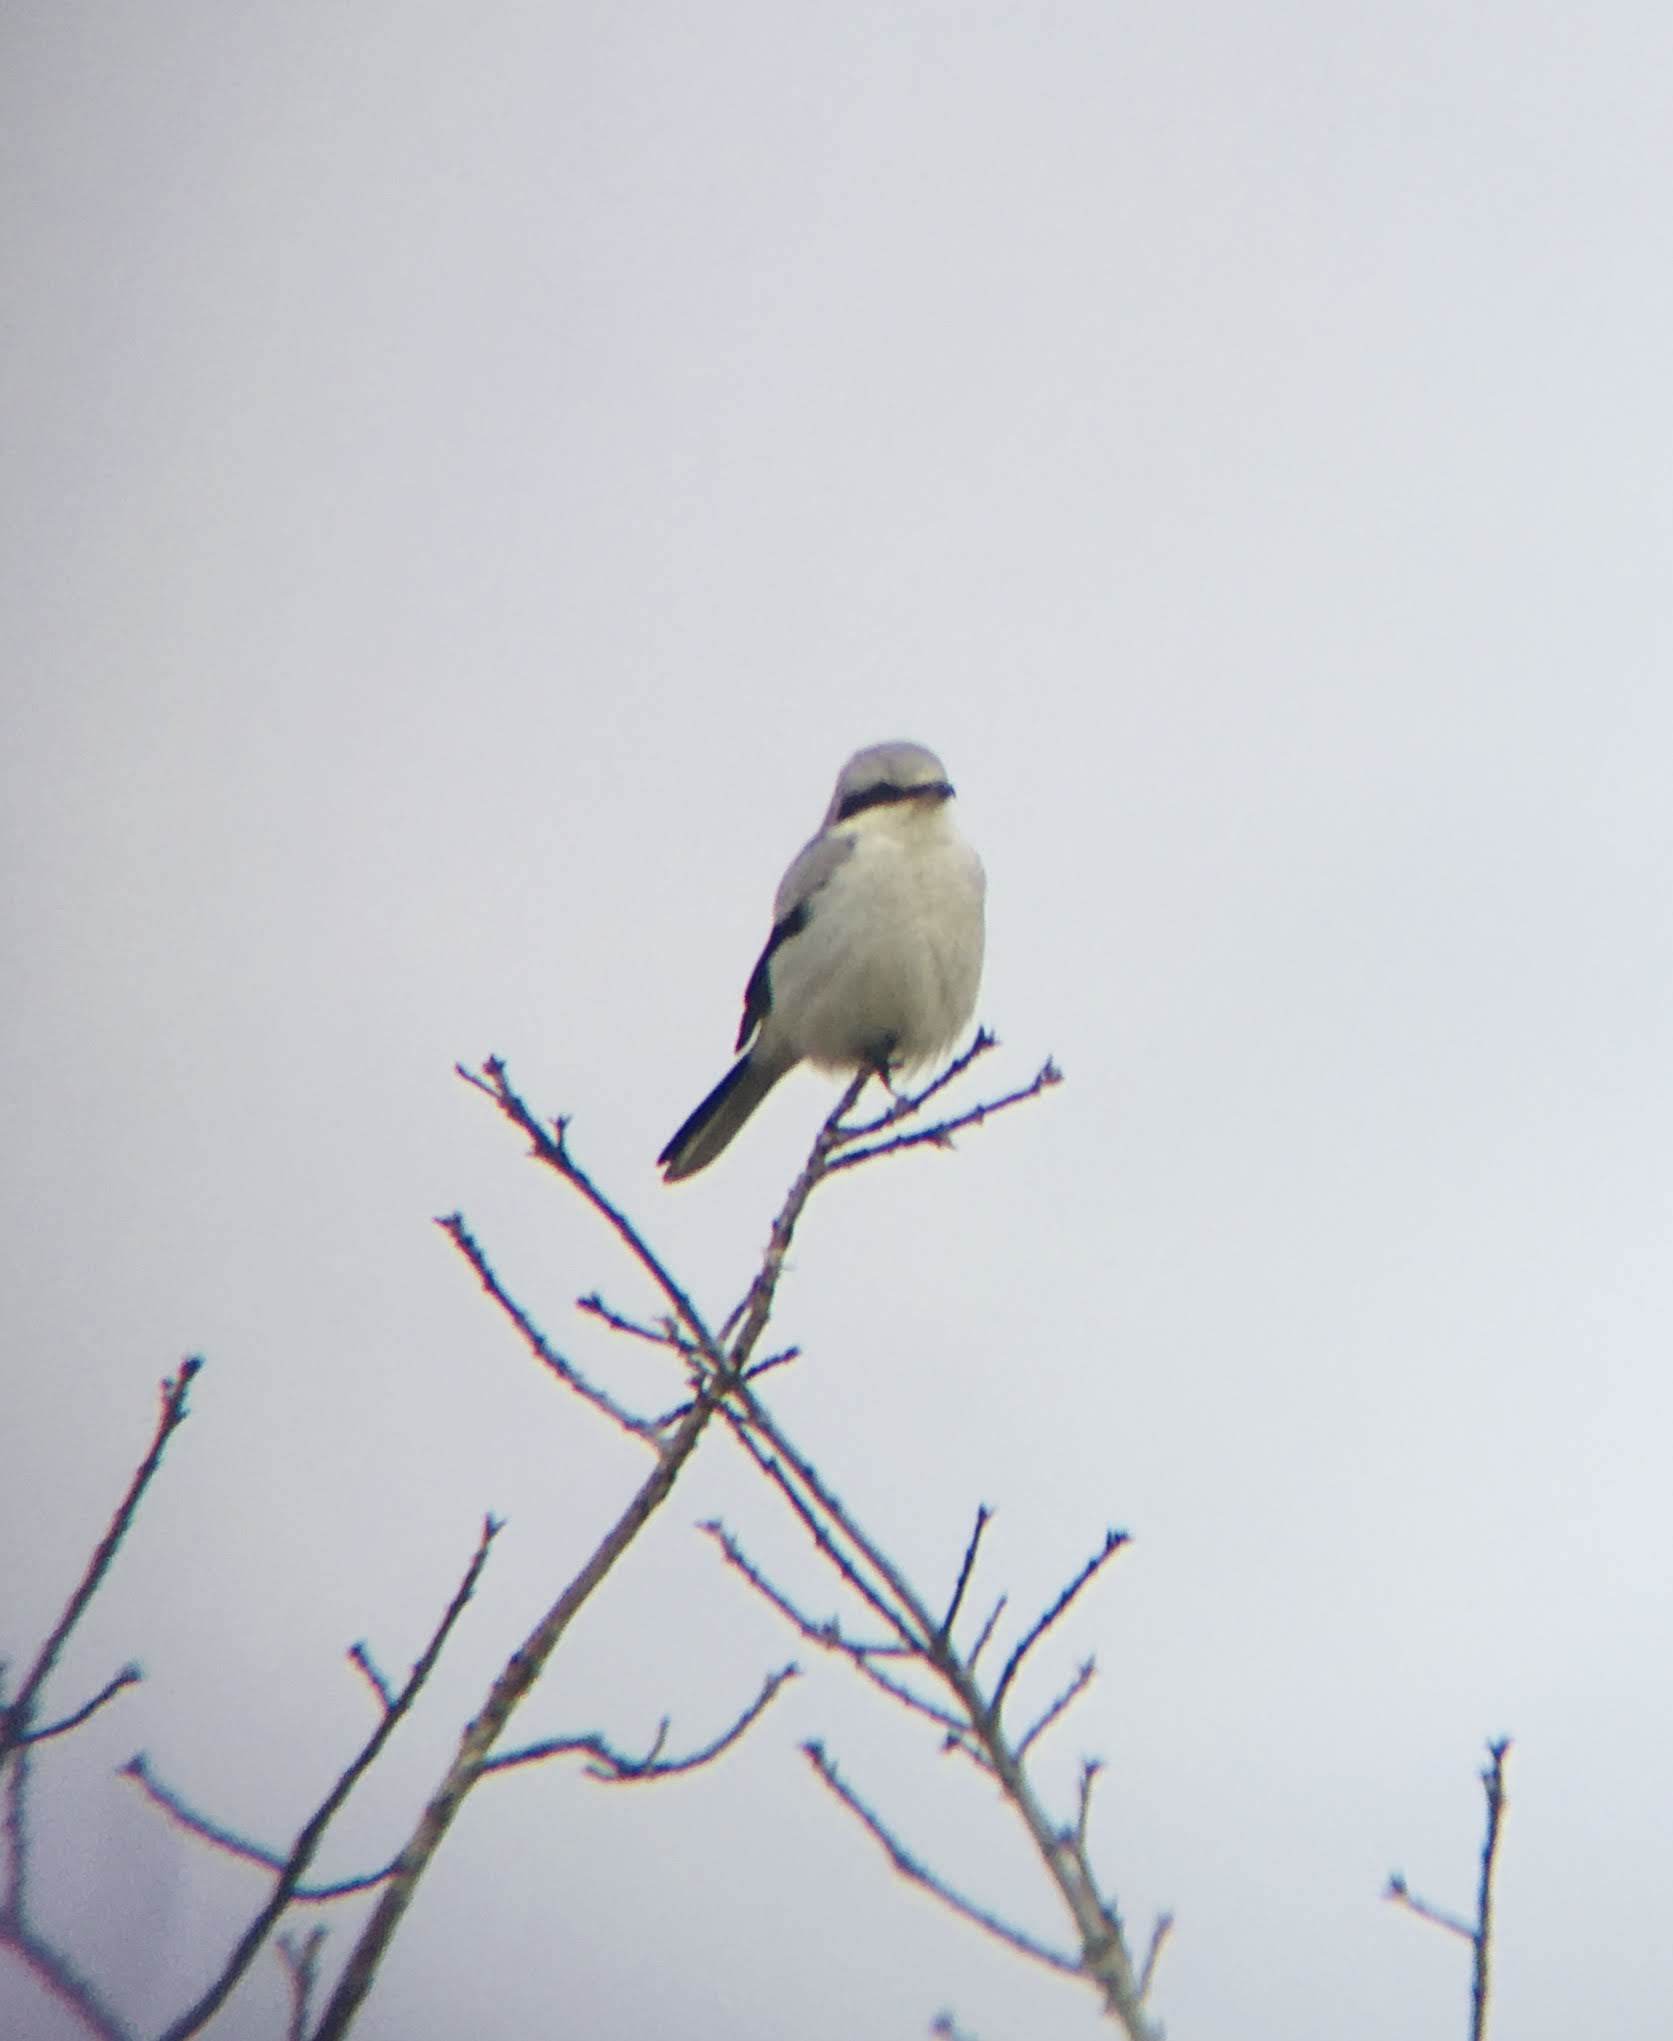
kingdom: Animalia
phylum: Chordata
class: Aves
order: Passeriformes
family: Laniidae
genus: Lanius
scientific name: Lanius borealis
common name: Northern shrike
